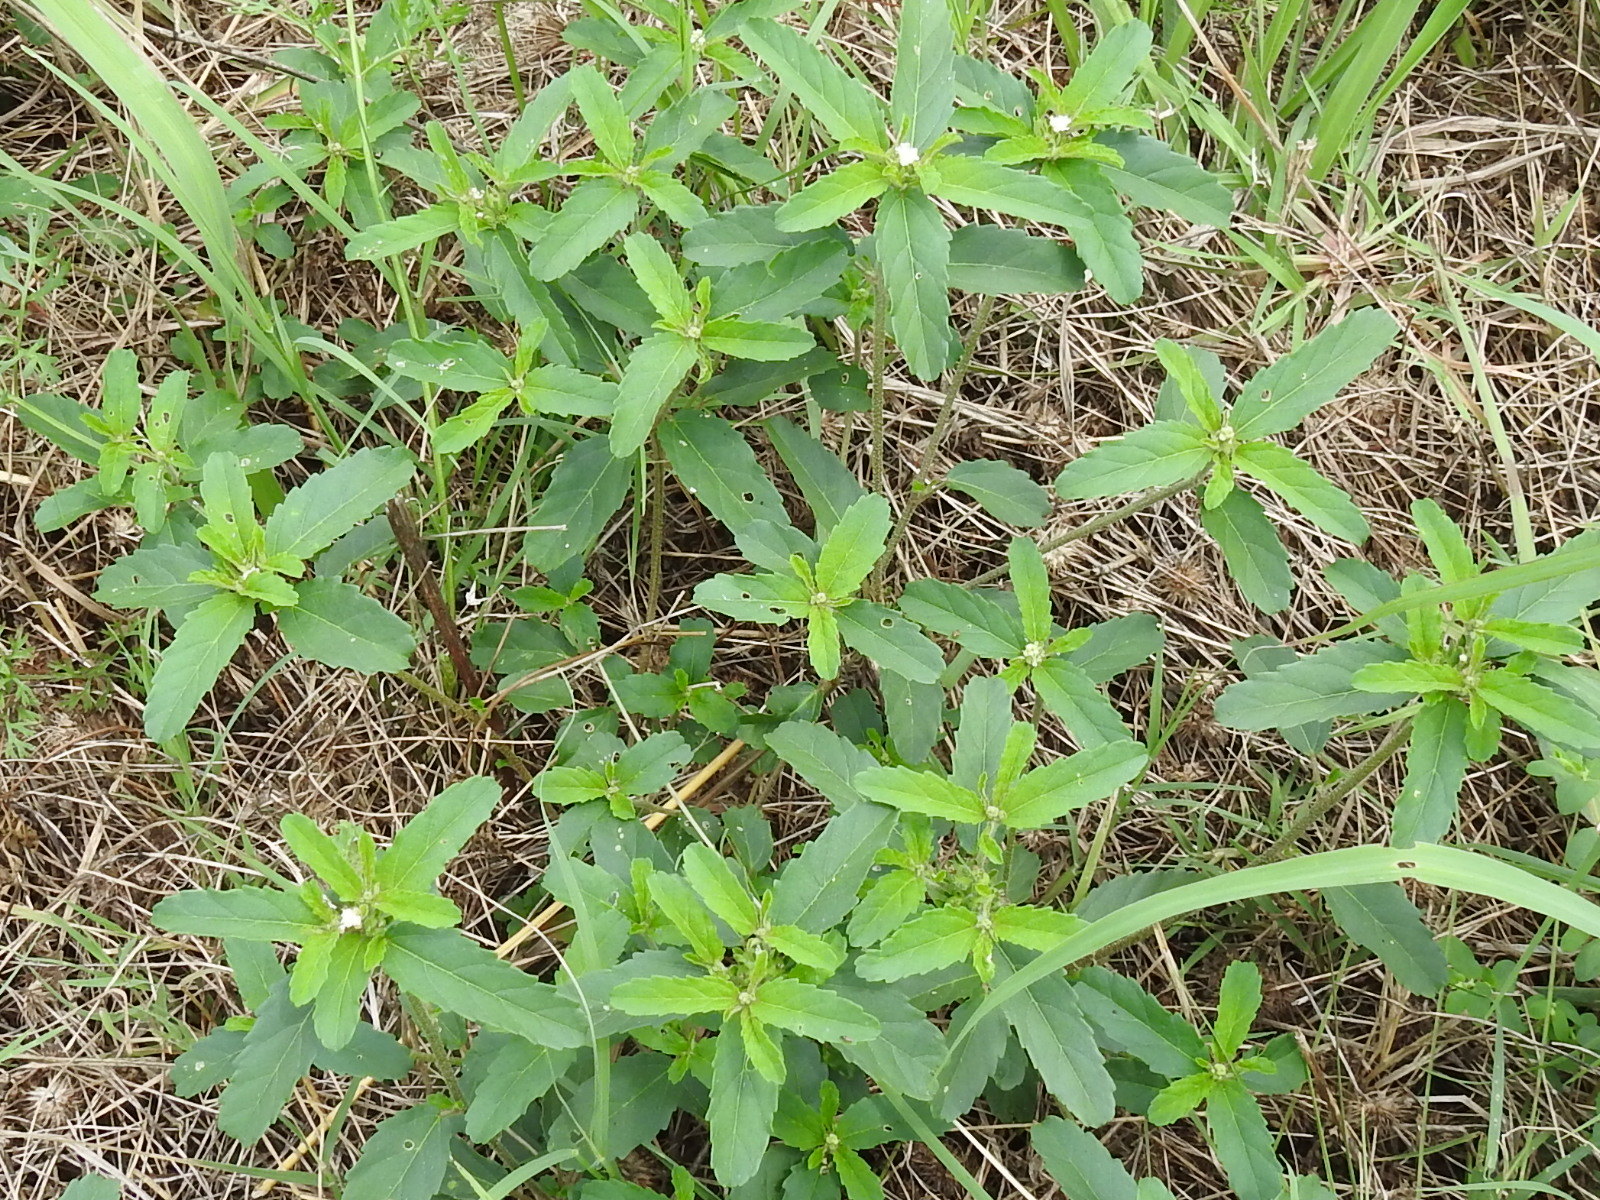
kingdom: Plantae
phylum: Tracheophyta
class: Magnoliopsida
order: Malpighiales
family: Euphorbiaceae
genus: Croton
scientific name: Croton glandulosus
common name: Tropic croton
